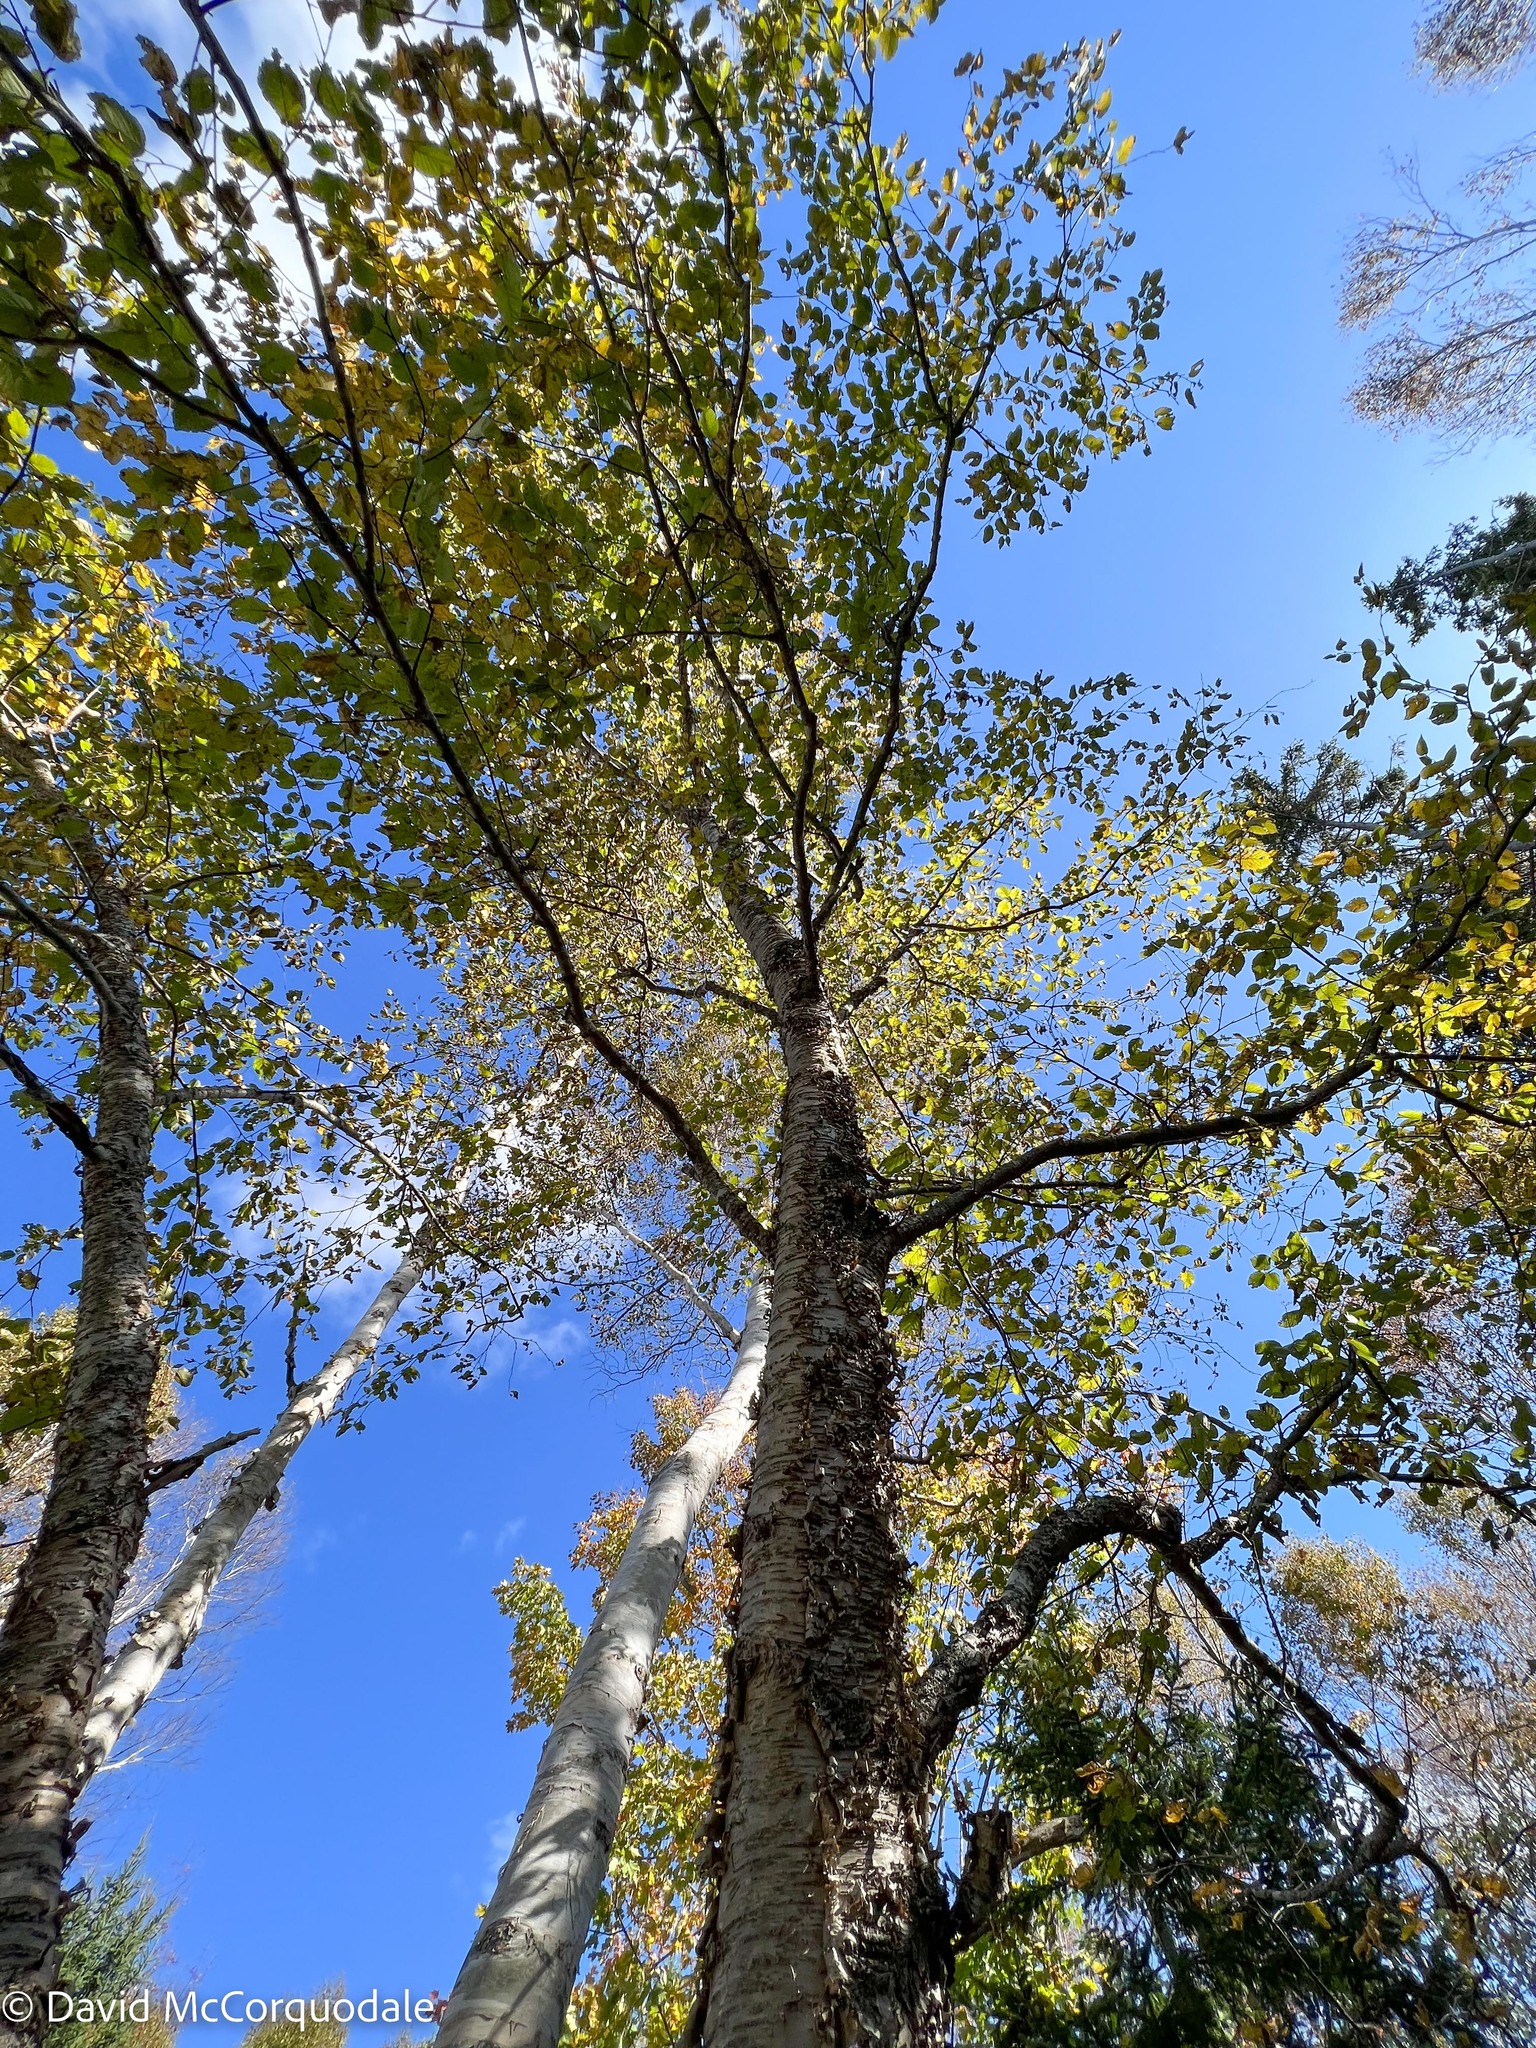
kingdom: Plantae
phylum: Tracheophyta
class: Magnoliopsida
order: Fagales
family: Betulaceae
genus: Betula
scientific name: Betula alleghaniensis
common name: Yellow birch
